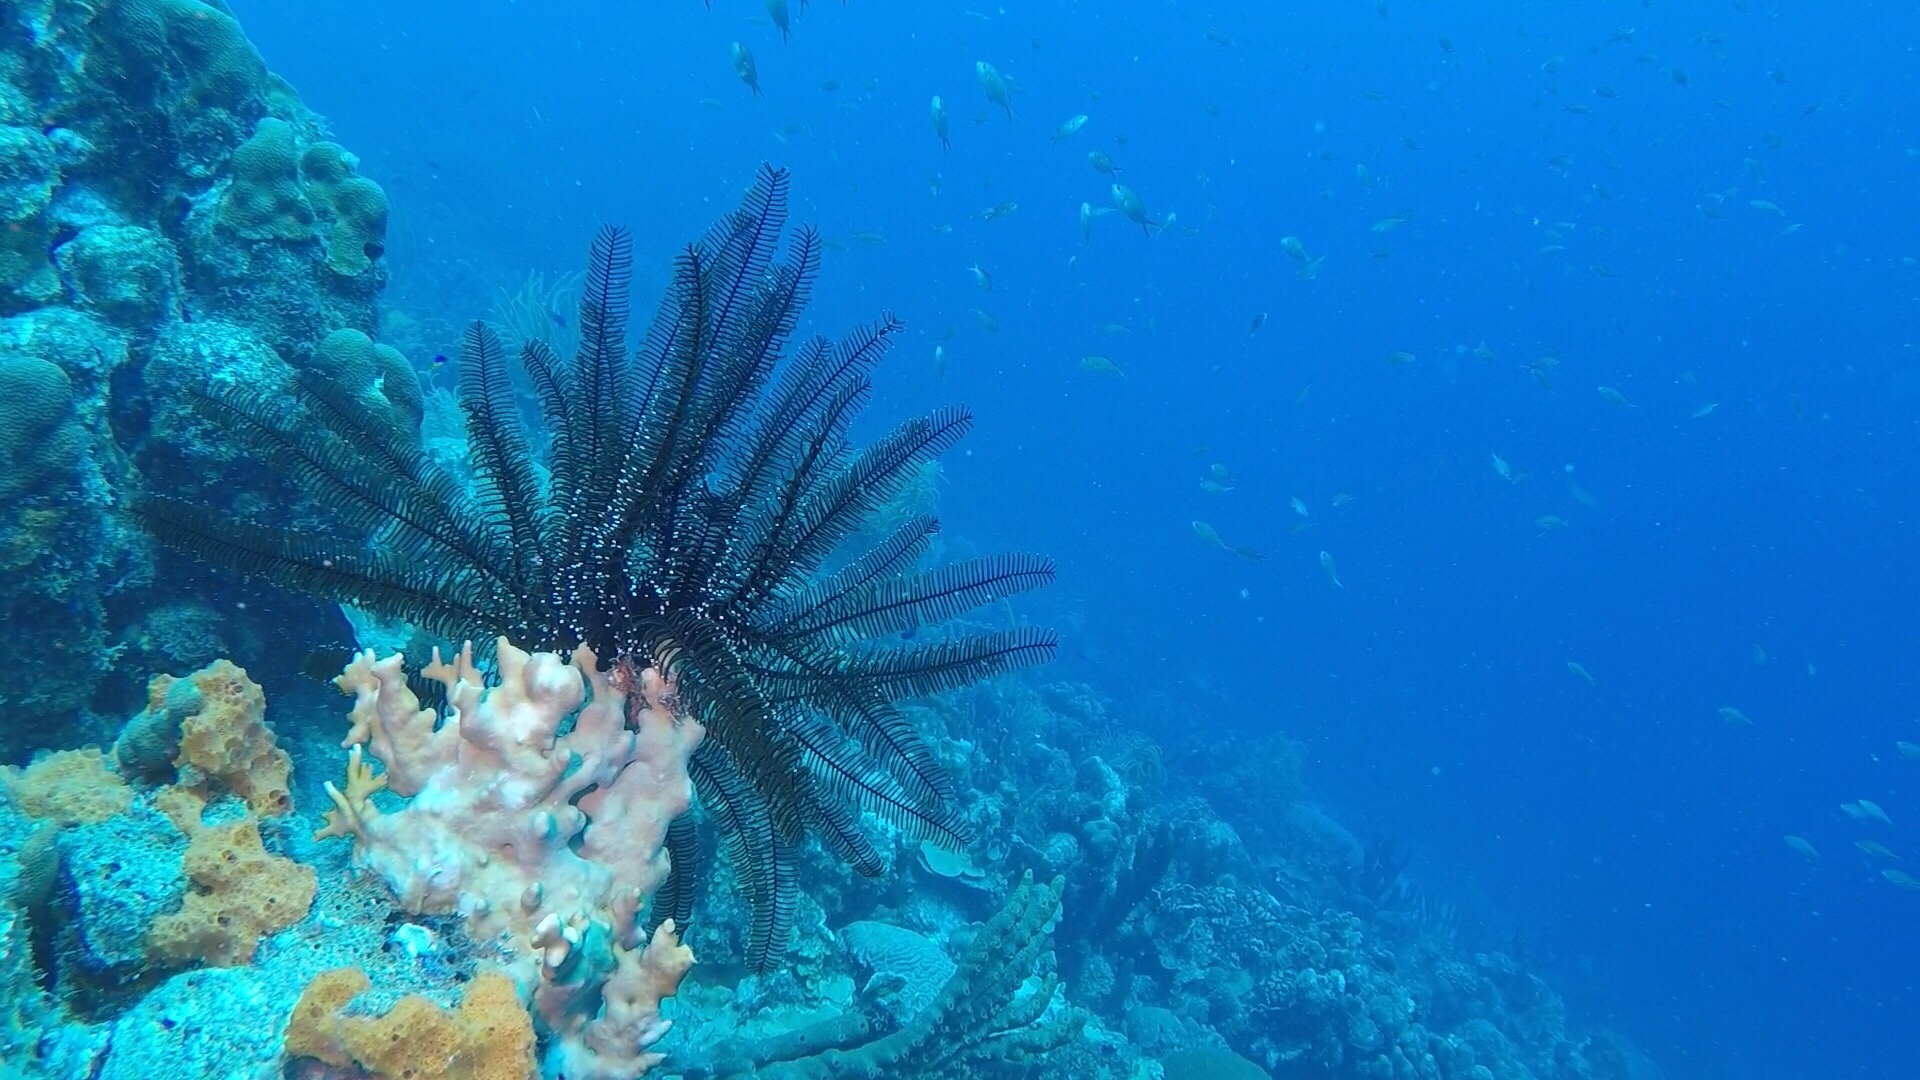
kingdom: Animalia
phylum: Echinodermata
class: Crinoidea
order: Comatulida
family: Comatulidae
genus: Nemaster
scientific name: Nemaster grandis
